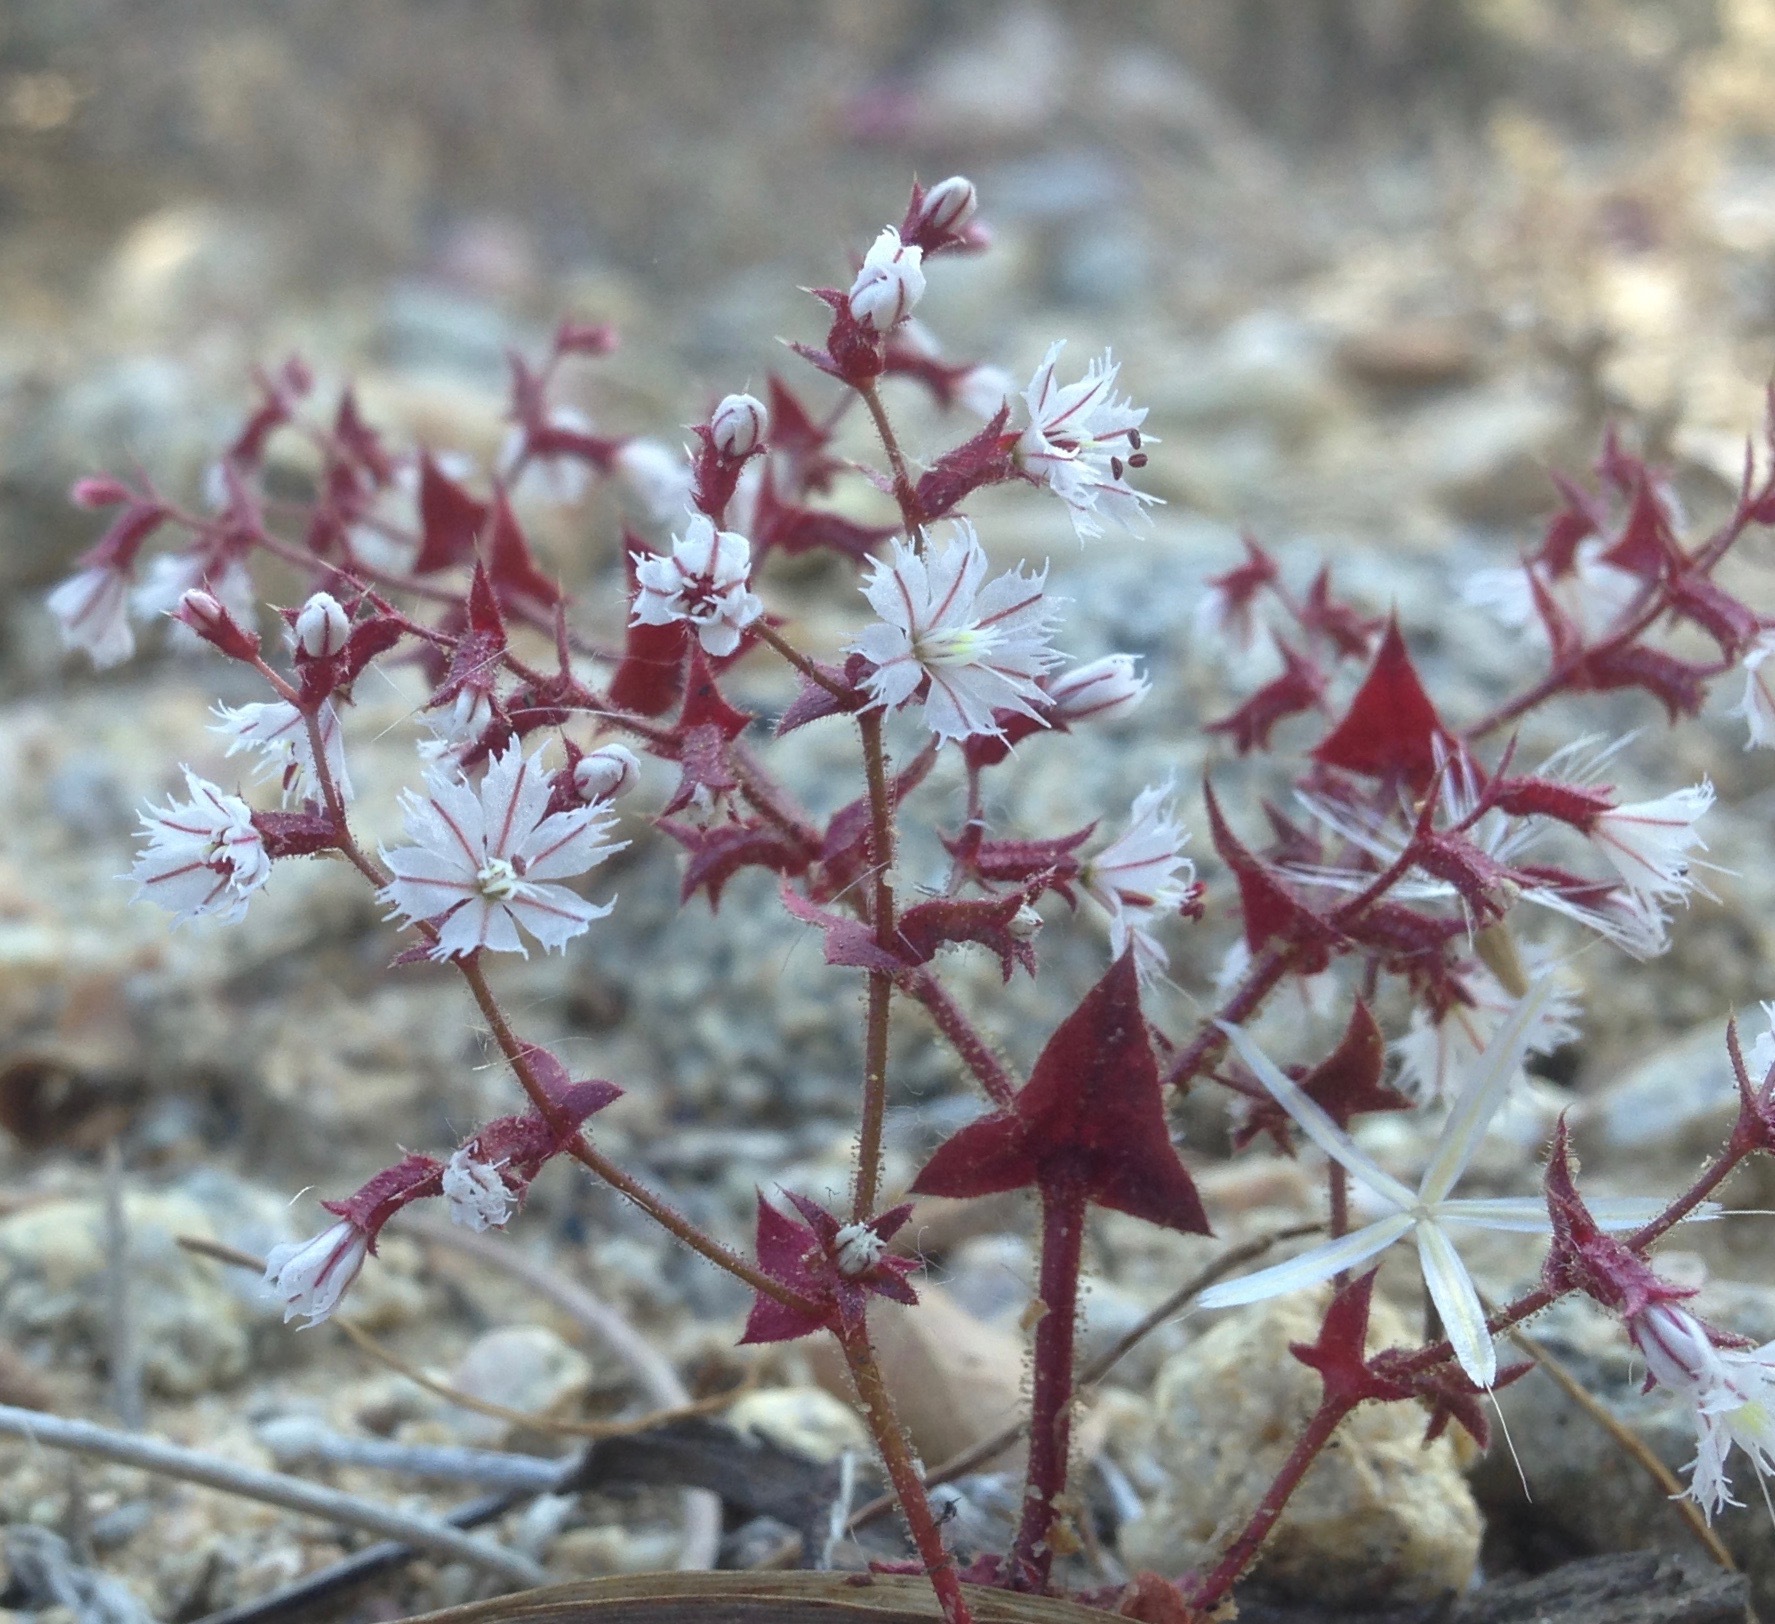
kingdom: Plantae
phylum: Tracheophyta
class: Magnoliopsida
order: Caryophyllales
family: Polygonaceae
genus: Mucronea
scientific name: Mucronea perfoliata
